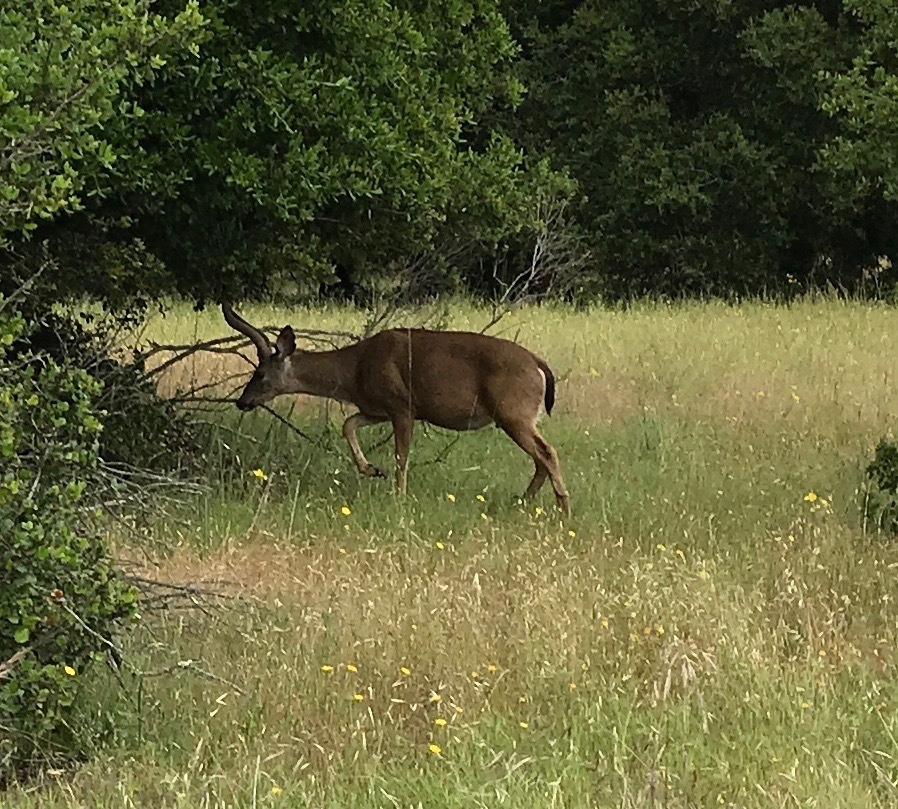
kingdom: Animalia
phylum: Chordata
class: Mammalia
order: Artiodactyla
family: Cervidae
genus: Odocoileus
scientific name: Odocoileus hemionus
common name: Mule deer
